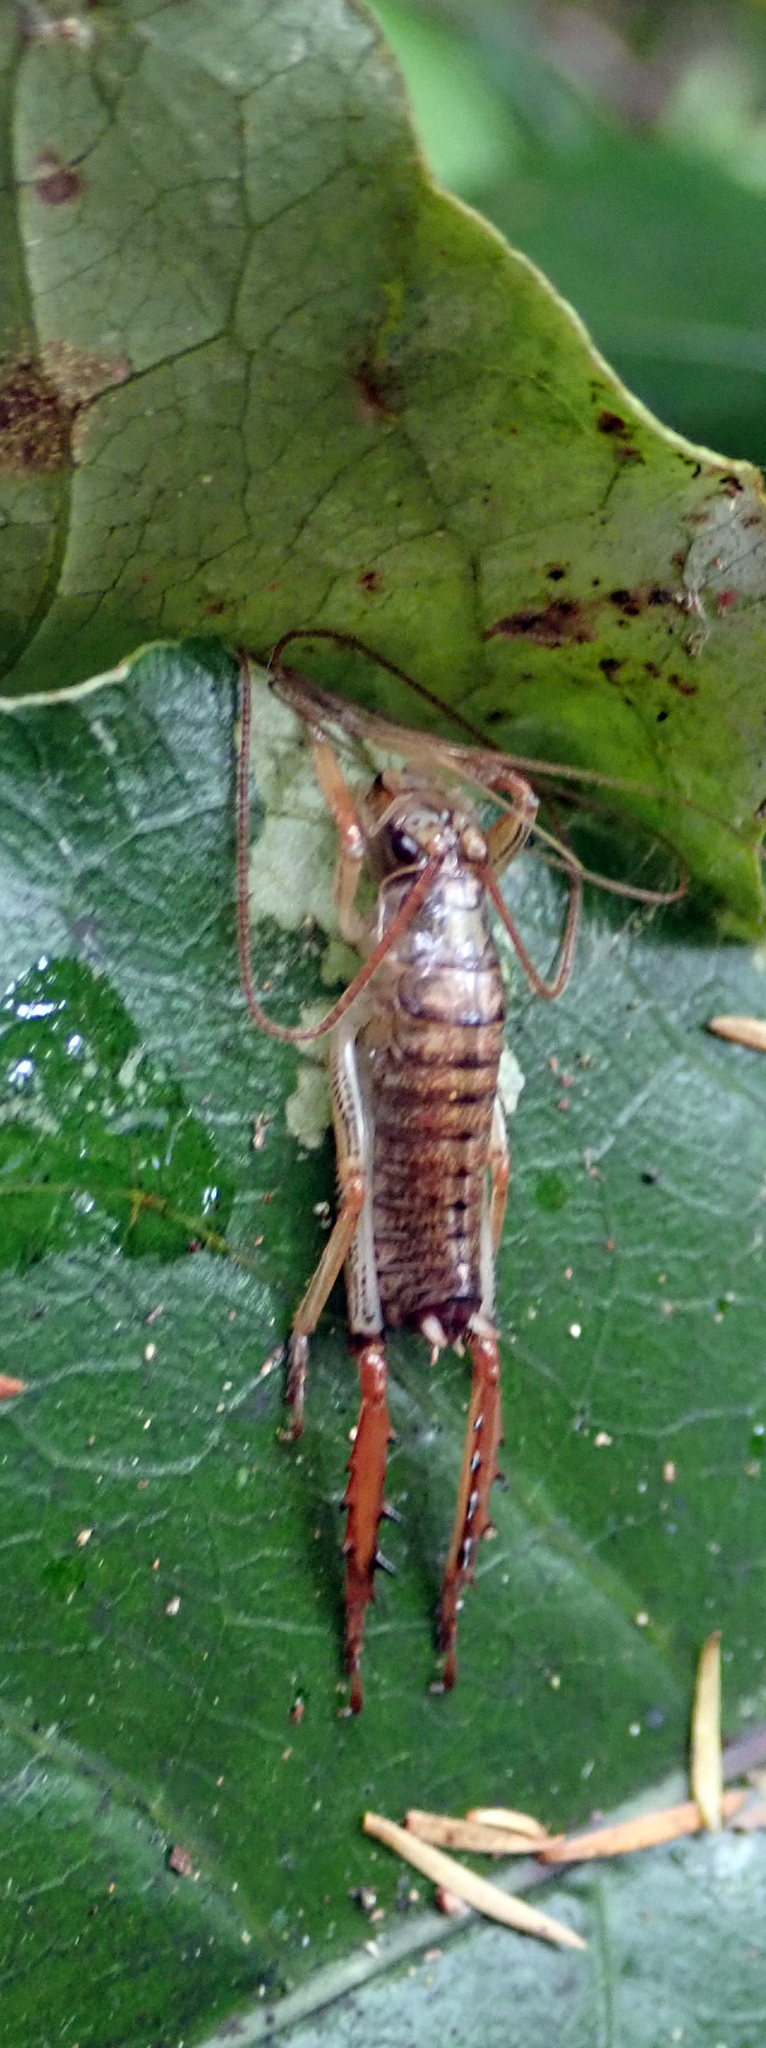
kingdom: Animalia
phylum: Arthropoda
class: Insecta
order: Orthoptera
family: Anostostomatidae
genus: Hemideina
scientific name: Hemideina thoracica
